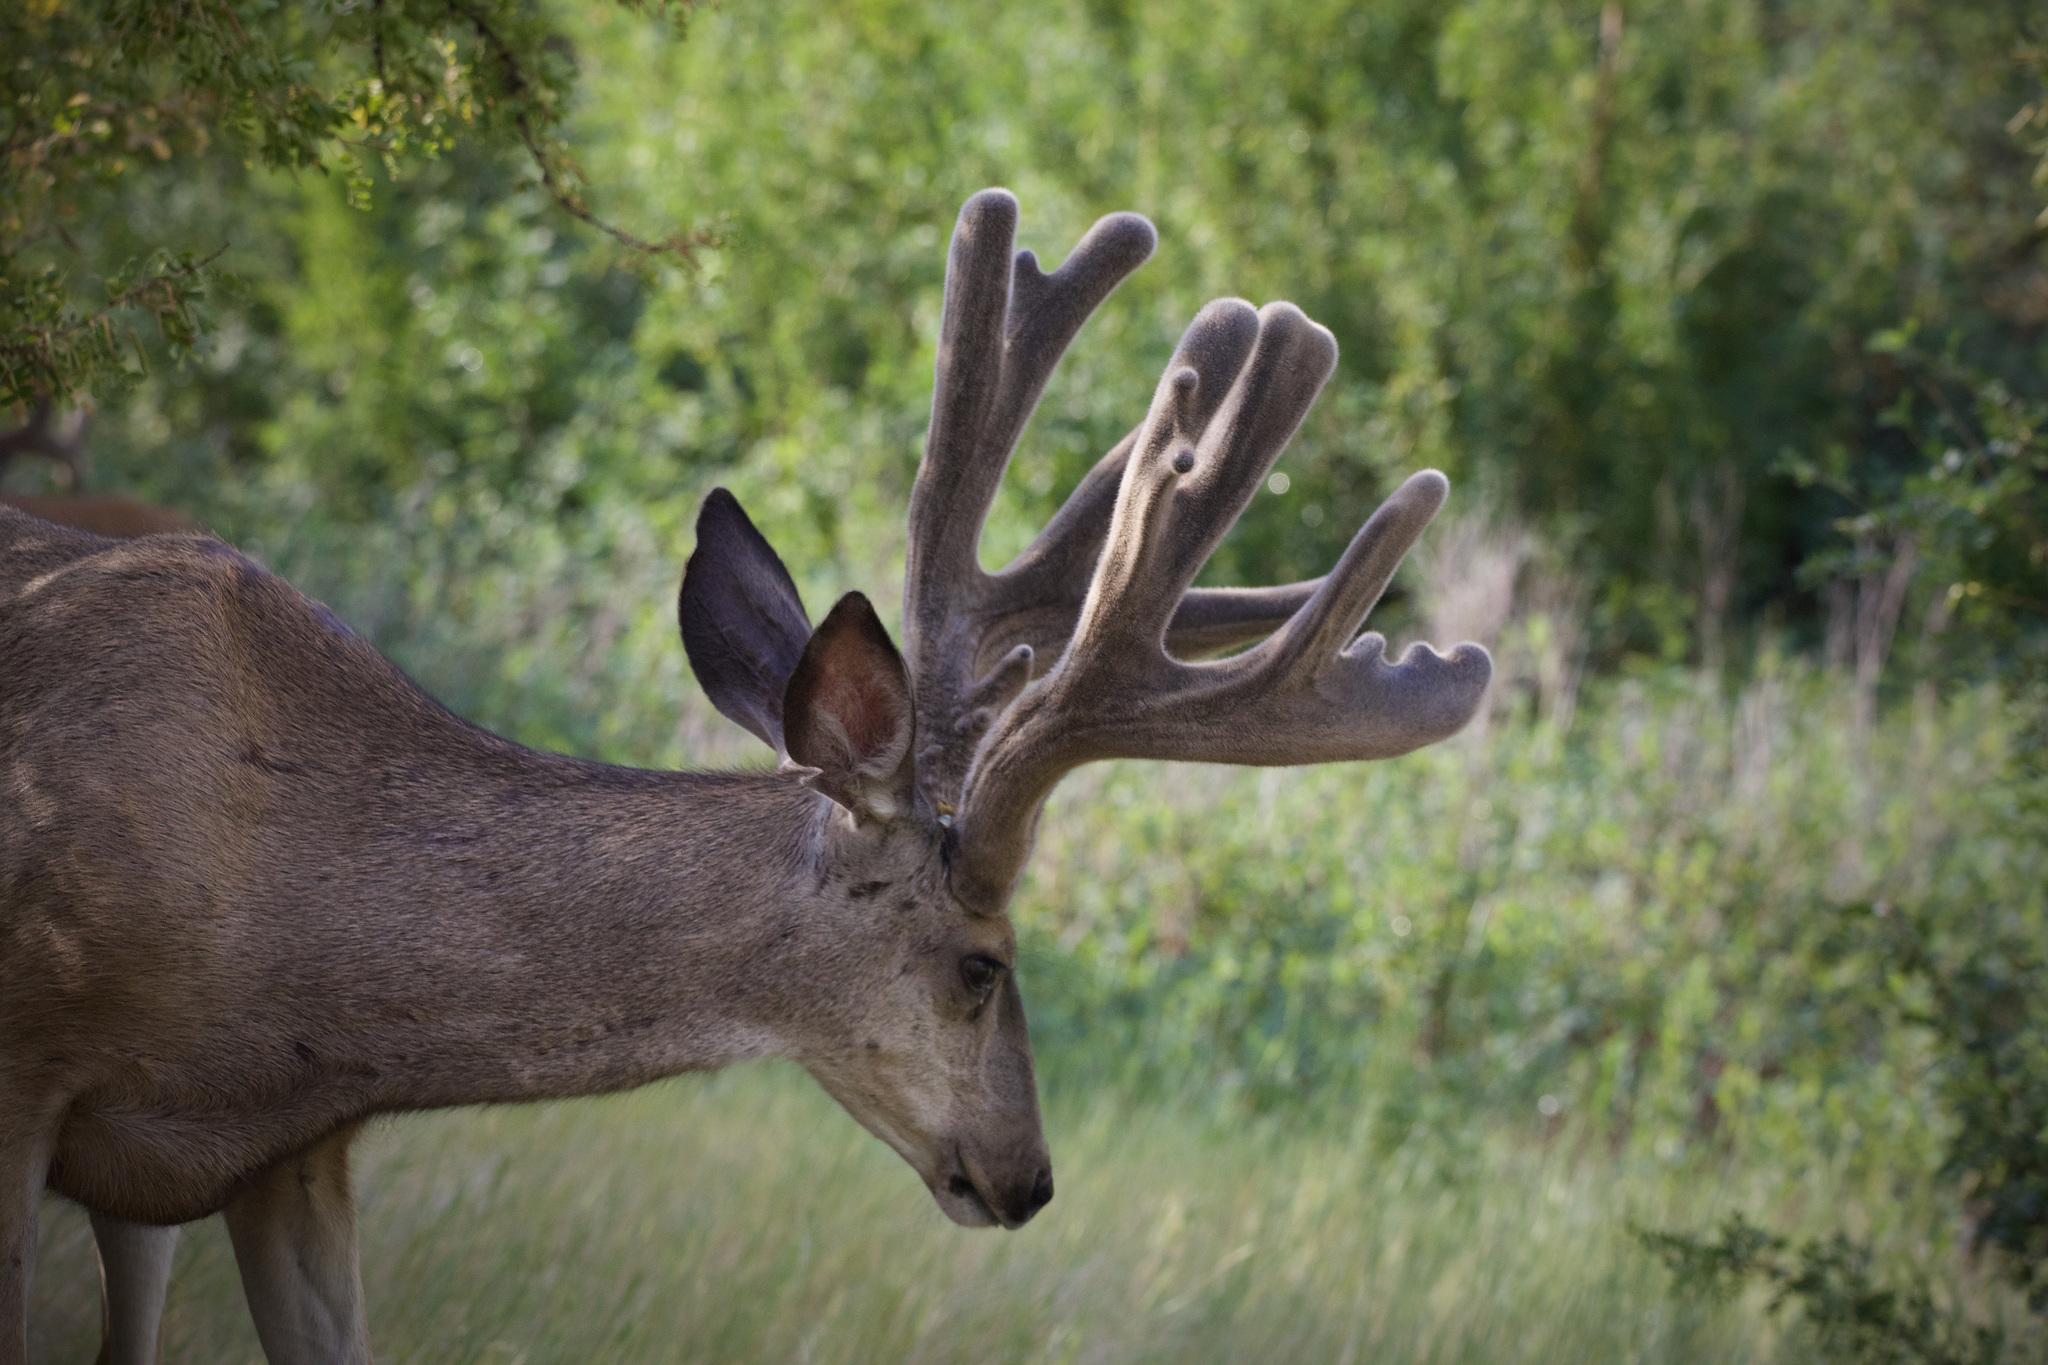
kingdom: Animalia
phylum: Chordata
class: Mammalia
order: Artiodactyla
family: Cervidae
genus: Odocoileus
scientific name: Odocoileus hemionus
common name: Mule deer
